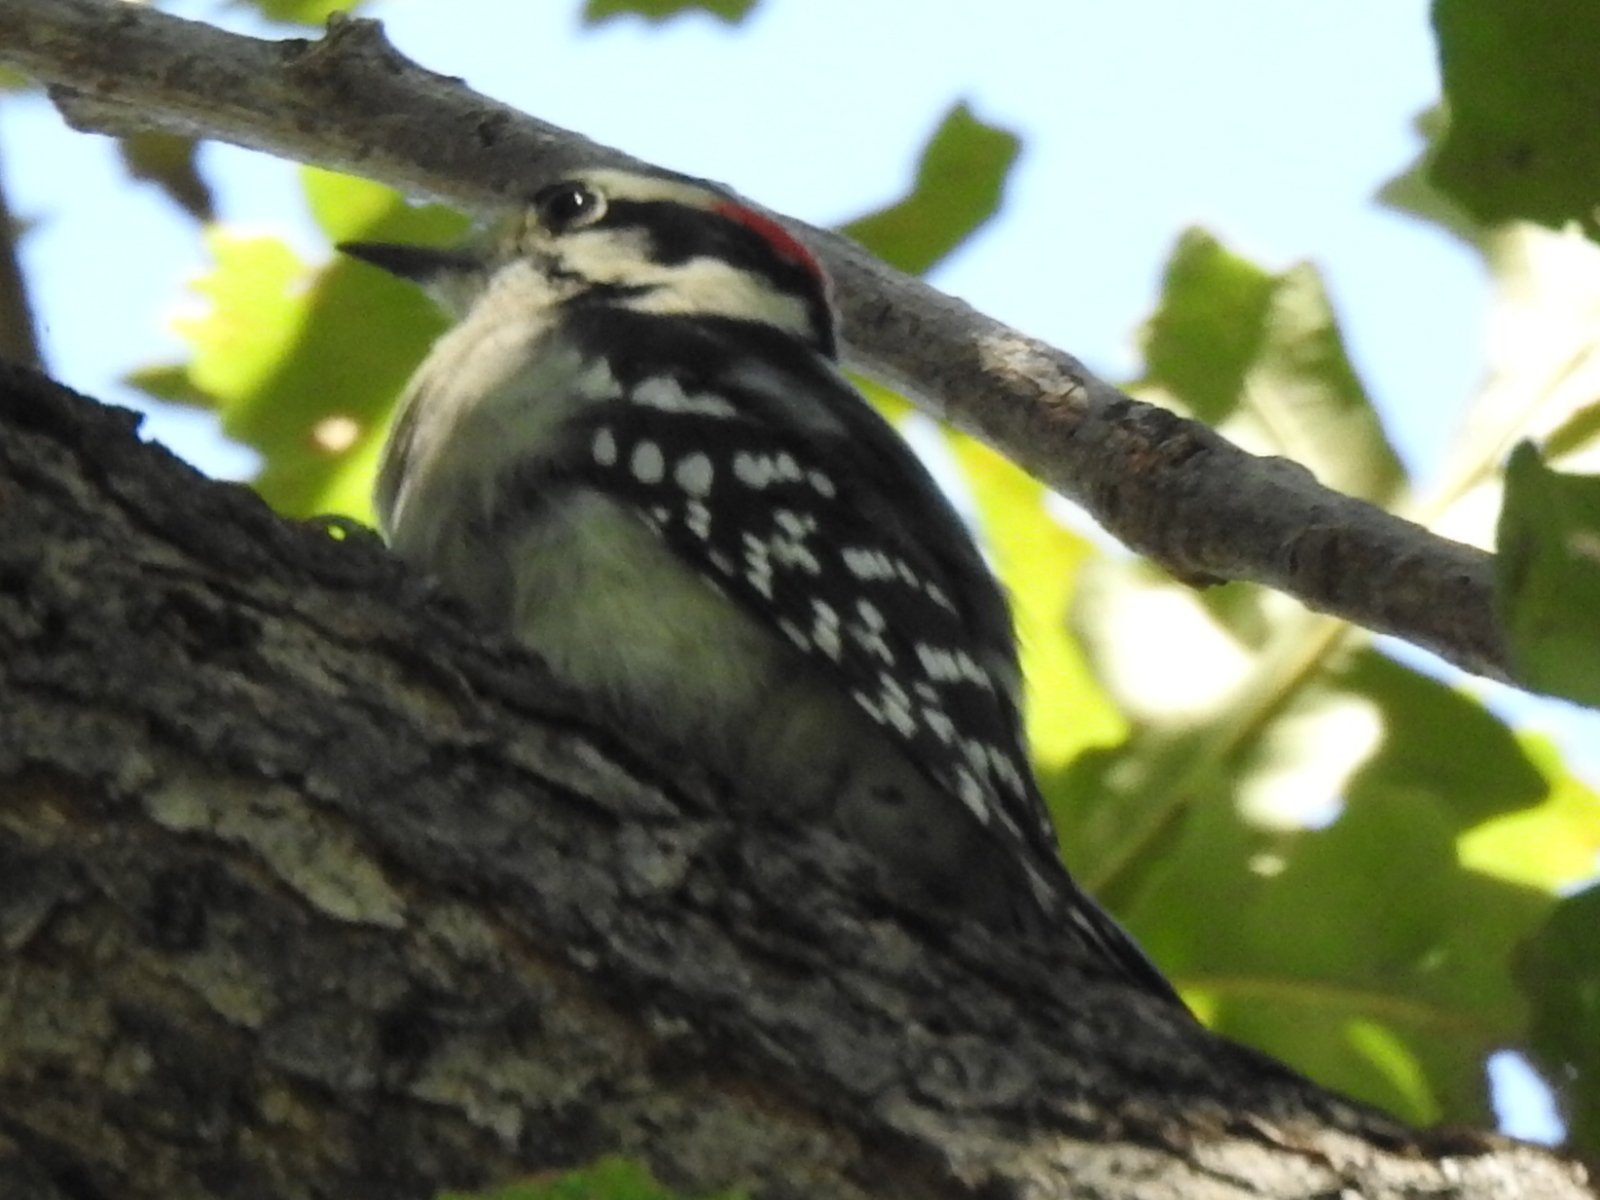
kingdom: Animalia
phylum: Chordata
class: Aves
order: Piciformes
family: Picidae
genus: Dryobates
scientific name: Dryobates pubescens
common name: Downy woodpecker
